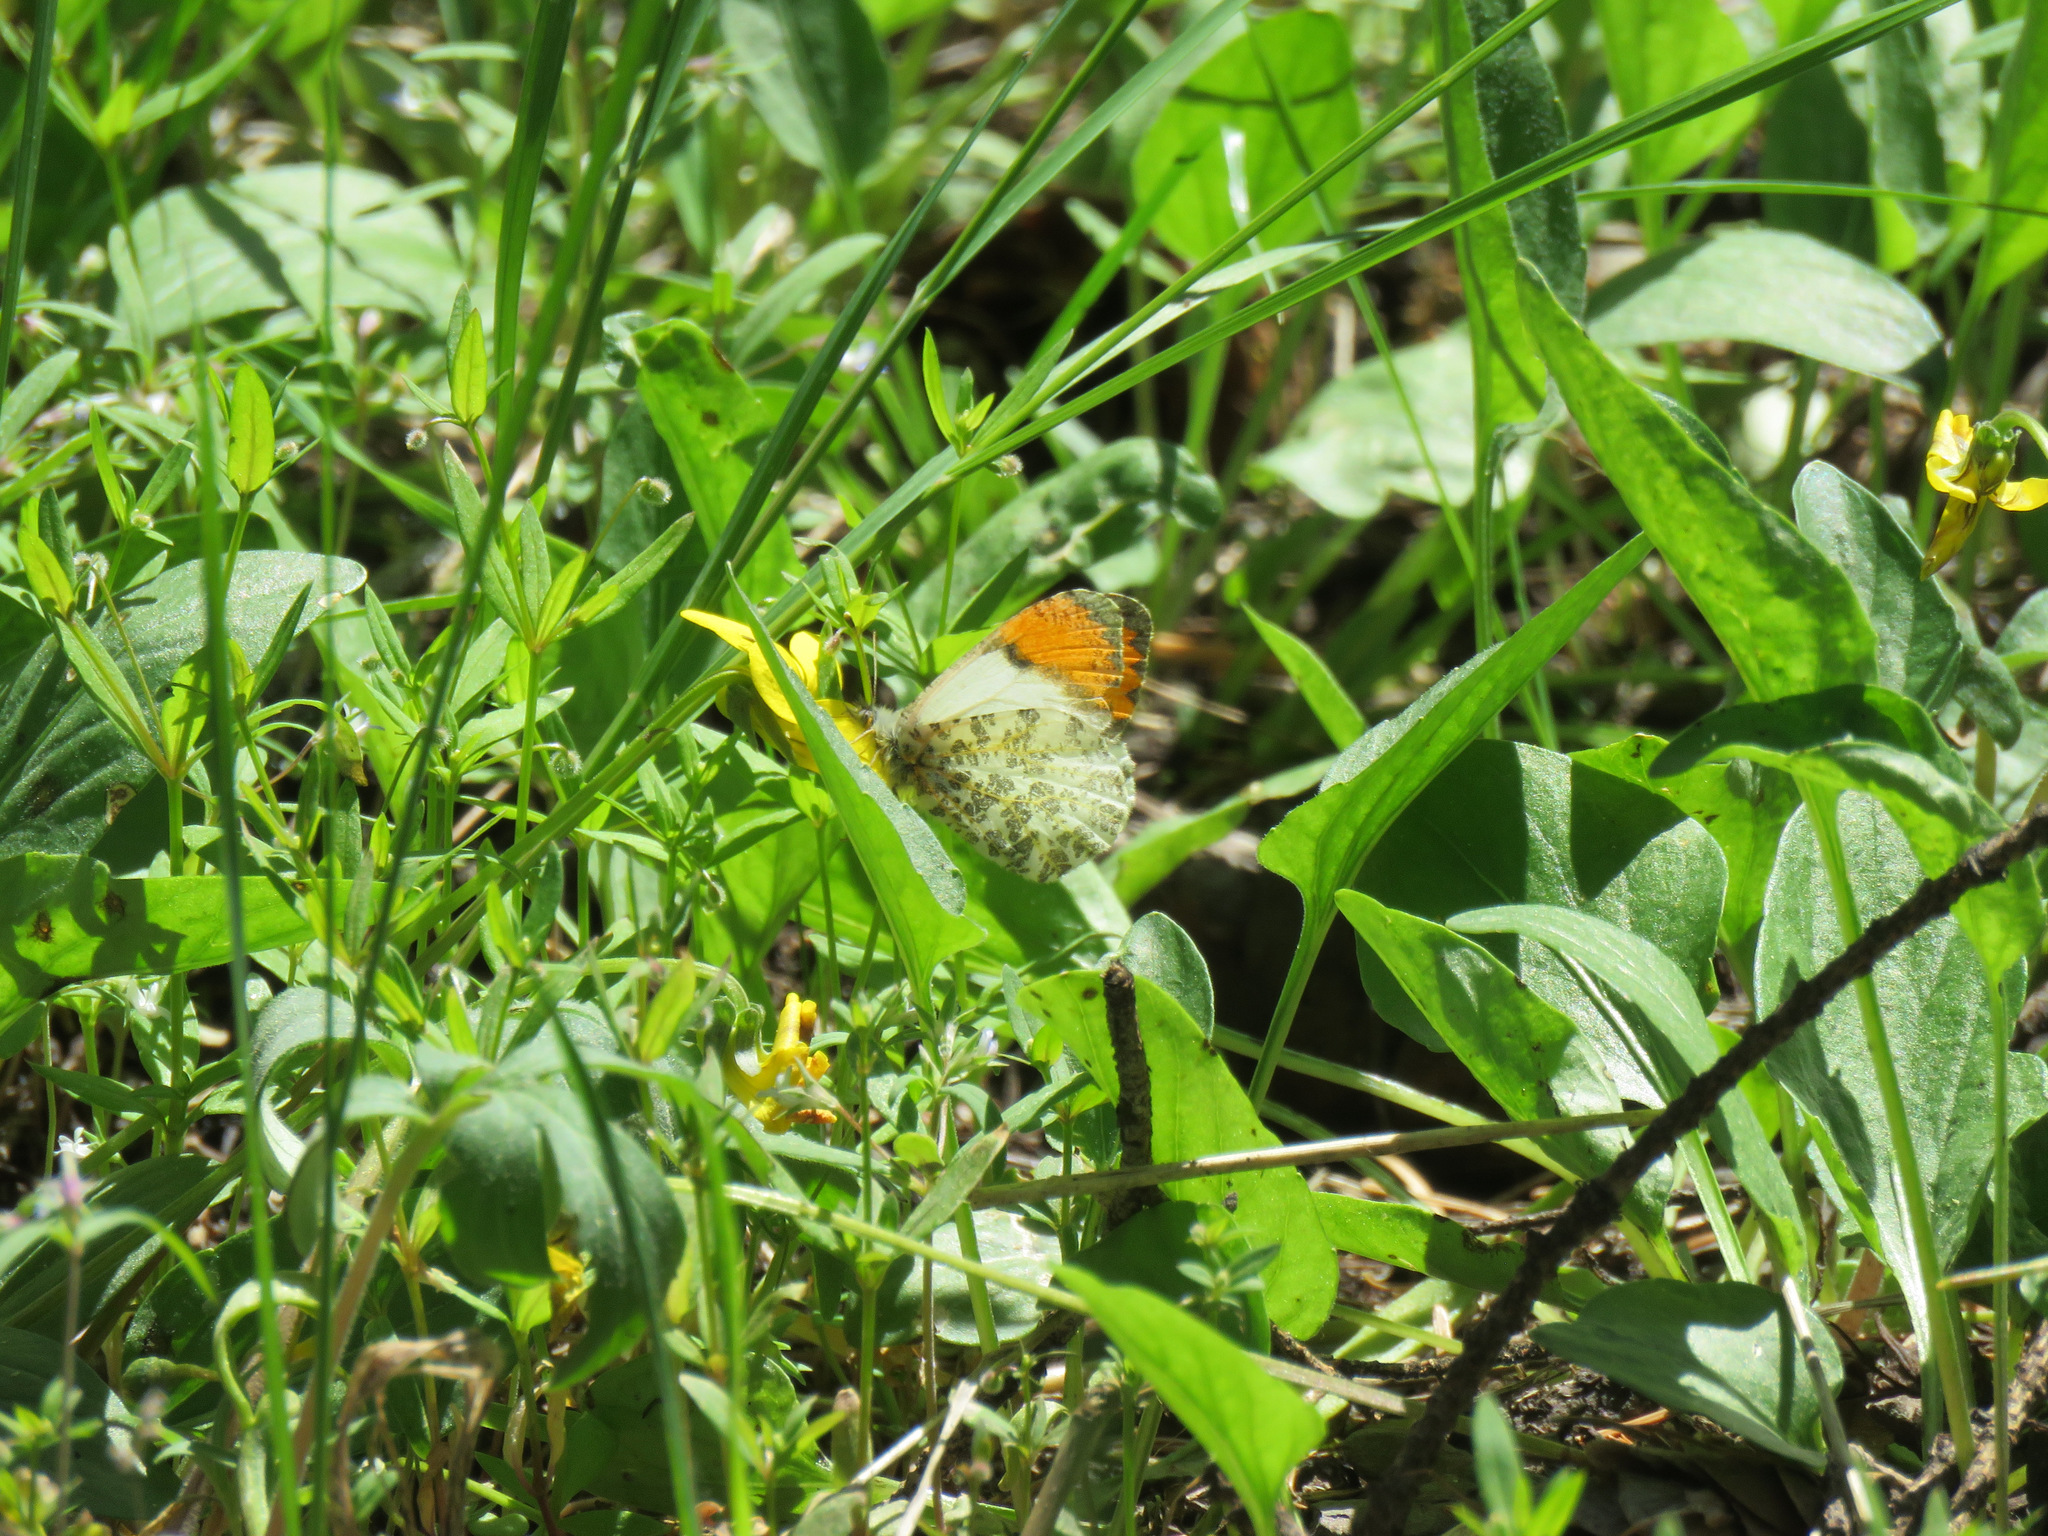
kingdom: Animalia
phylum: Arthropoda
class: Insecta
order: Lepidoptera
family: Pieridae
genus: Anthocharis
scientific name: Anthocharis julia
